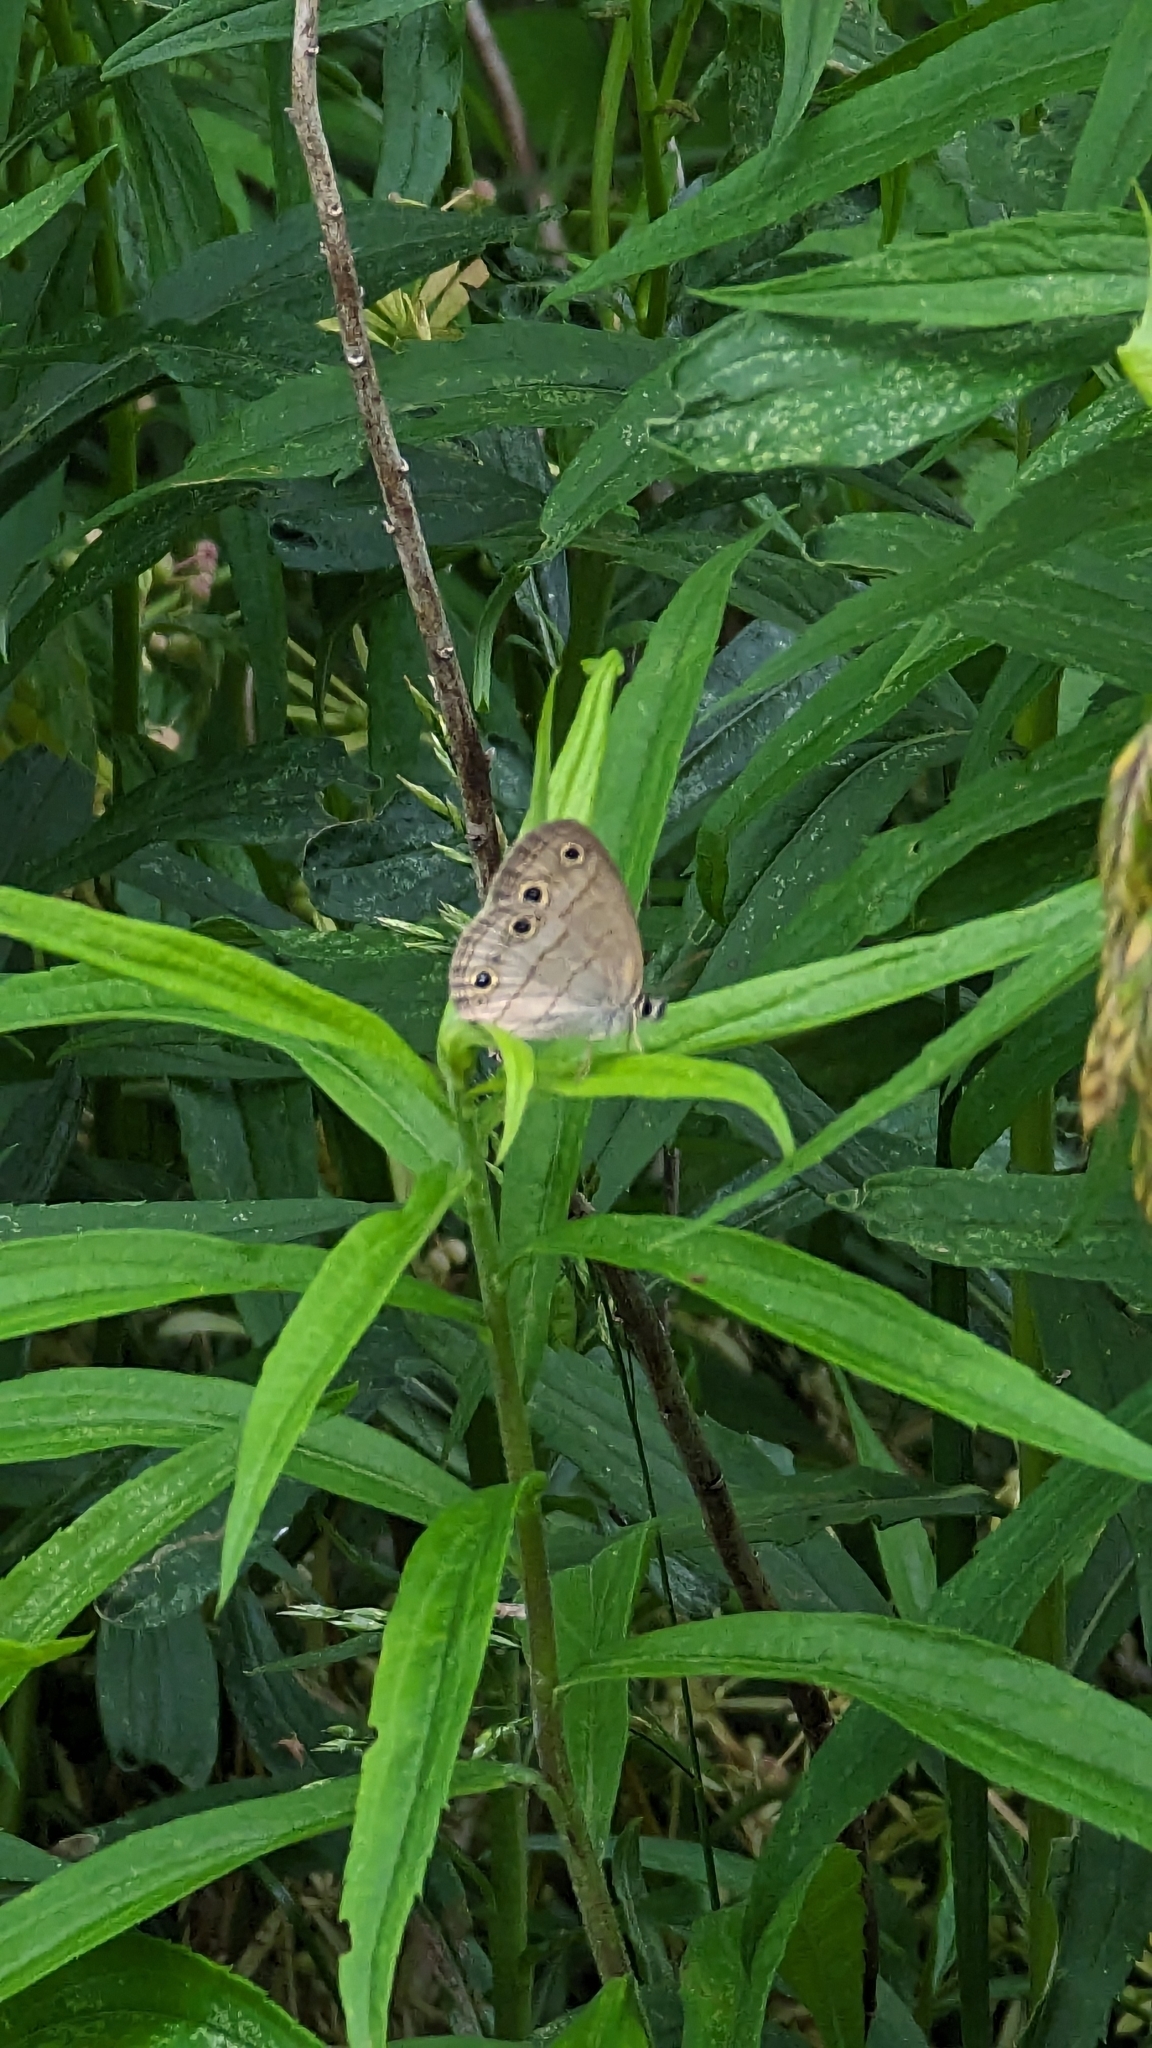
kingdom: Animalia
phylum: Arthropoda
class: Insecta
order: Lepidoptera
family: Nymphalidae
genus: Euptychia
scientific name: Euptychia cymela
